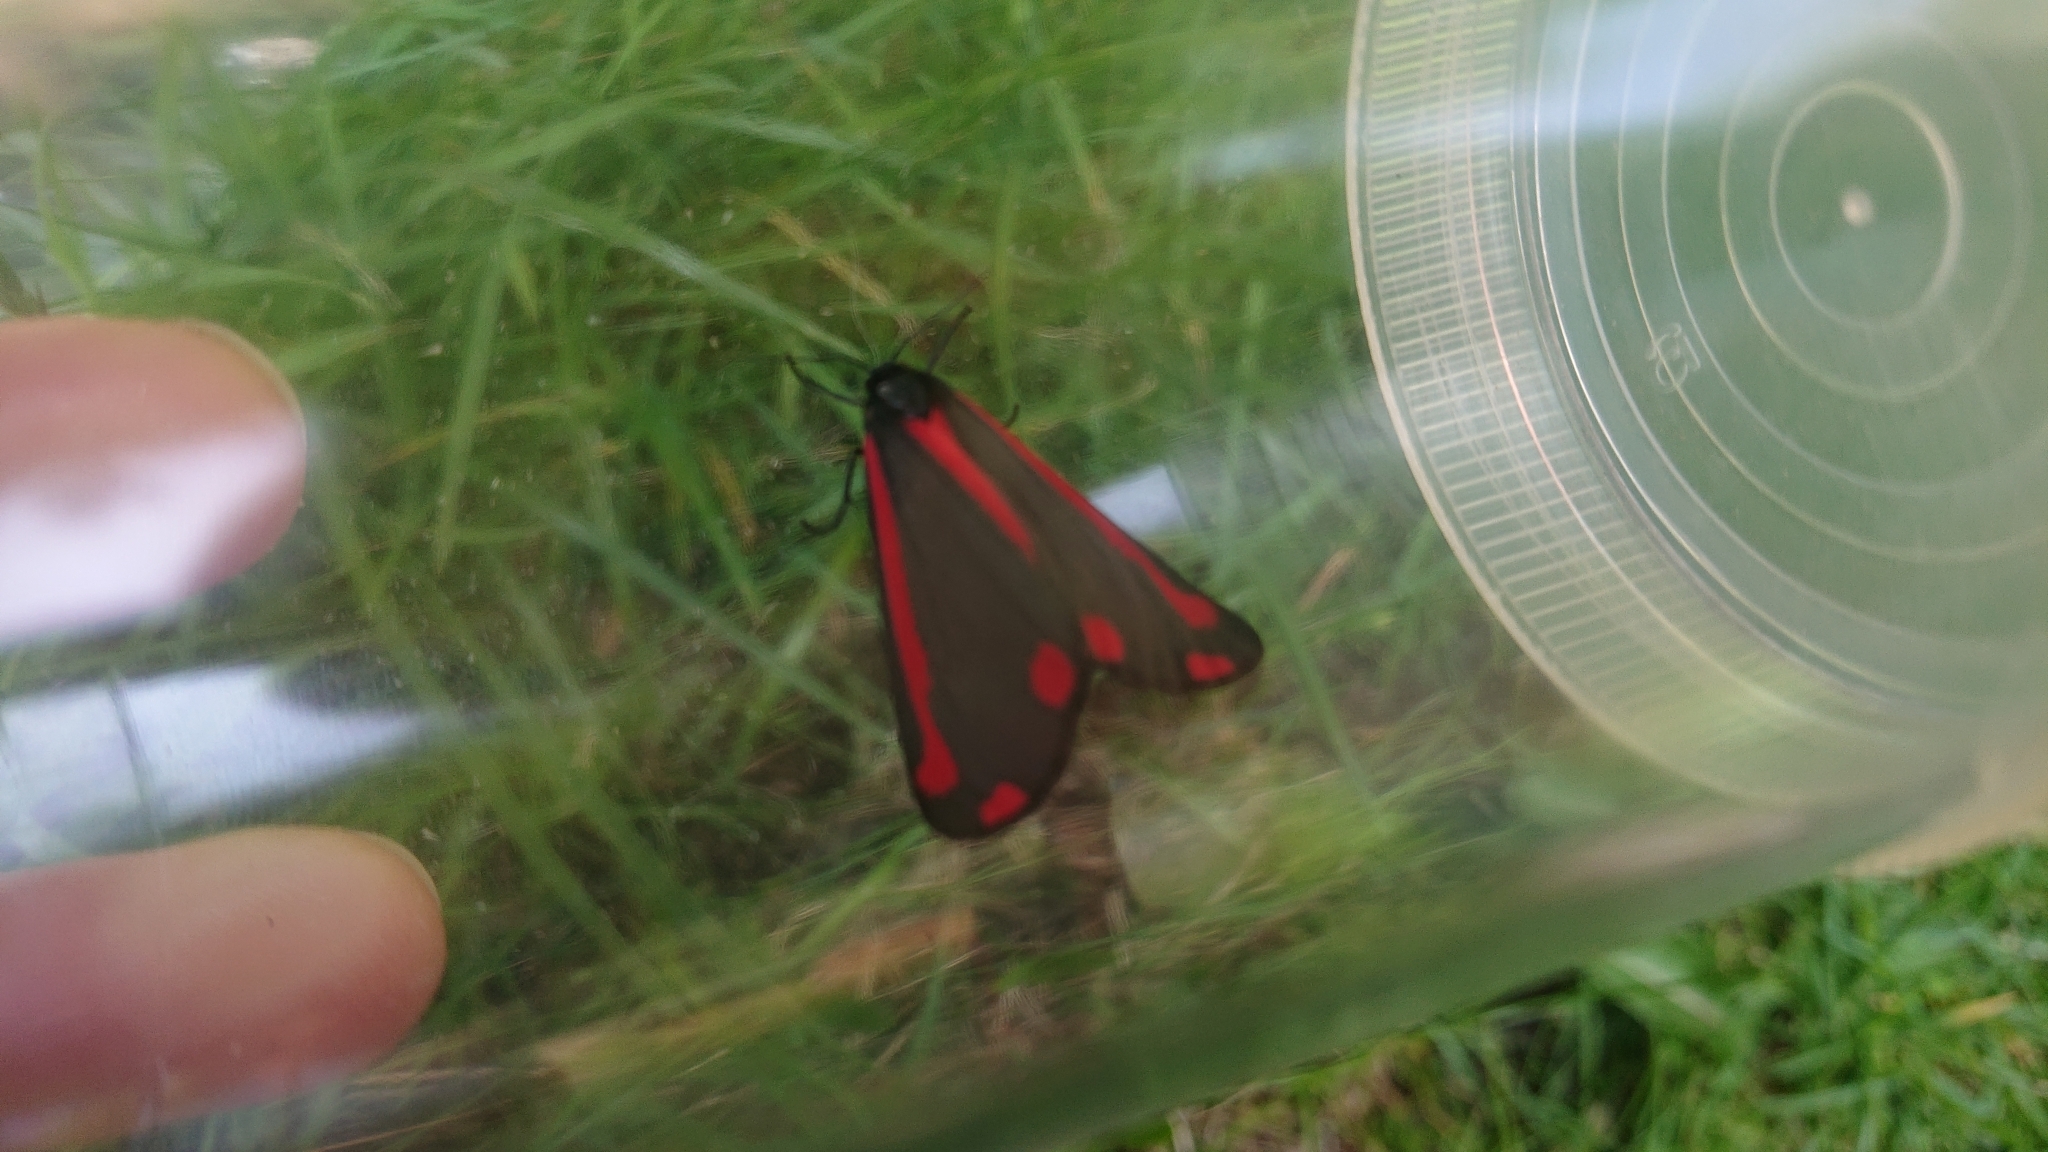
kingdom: Animalia
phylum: Arthropoda
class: Insecta
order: Lepidoptera
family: Erebidae
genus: Tyria
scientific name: Tyria jacobaeae
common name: Cinnabar
